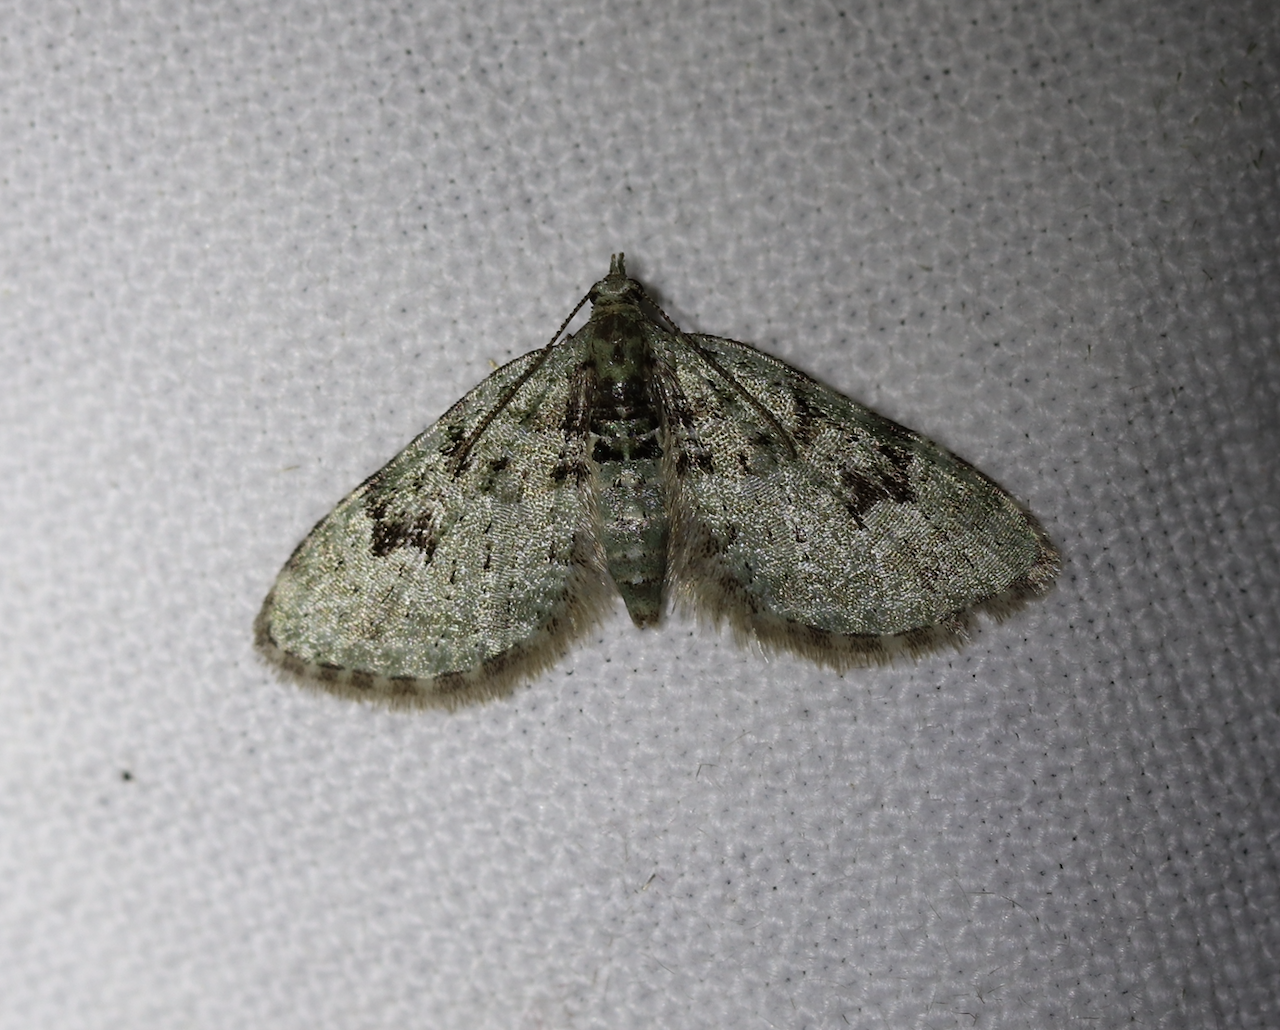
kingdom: Animalia
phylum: Arthropoda
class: Insecta
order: Lepidoptera
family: Geometridae
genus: Chloroclystis
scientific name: Chloroclystis v-ata
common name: V-pug
